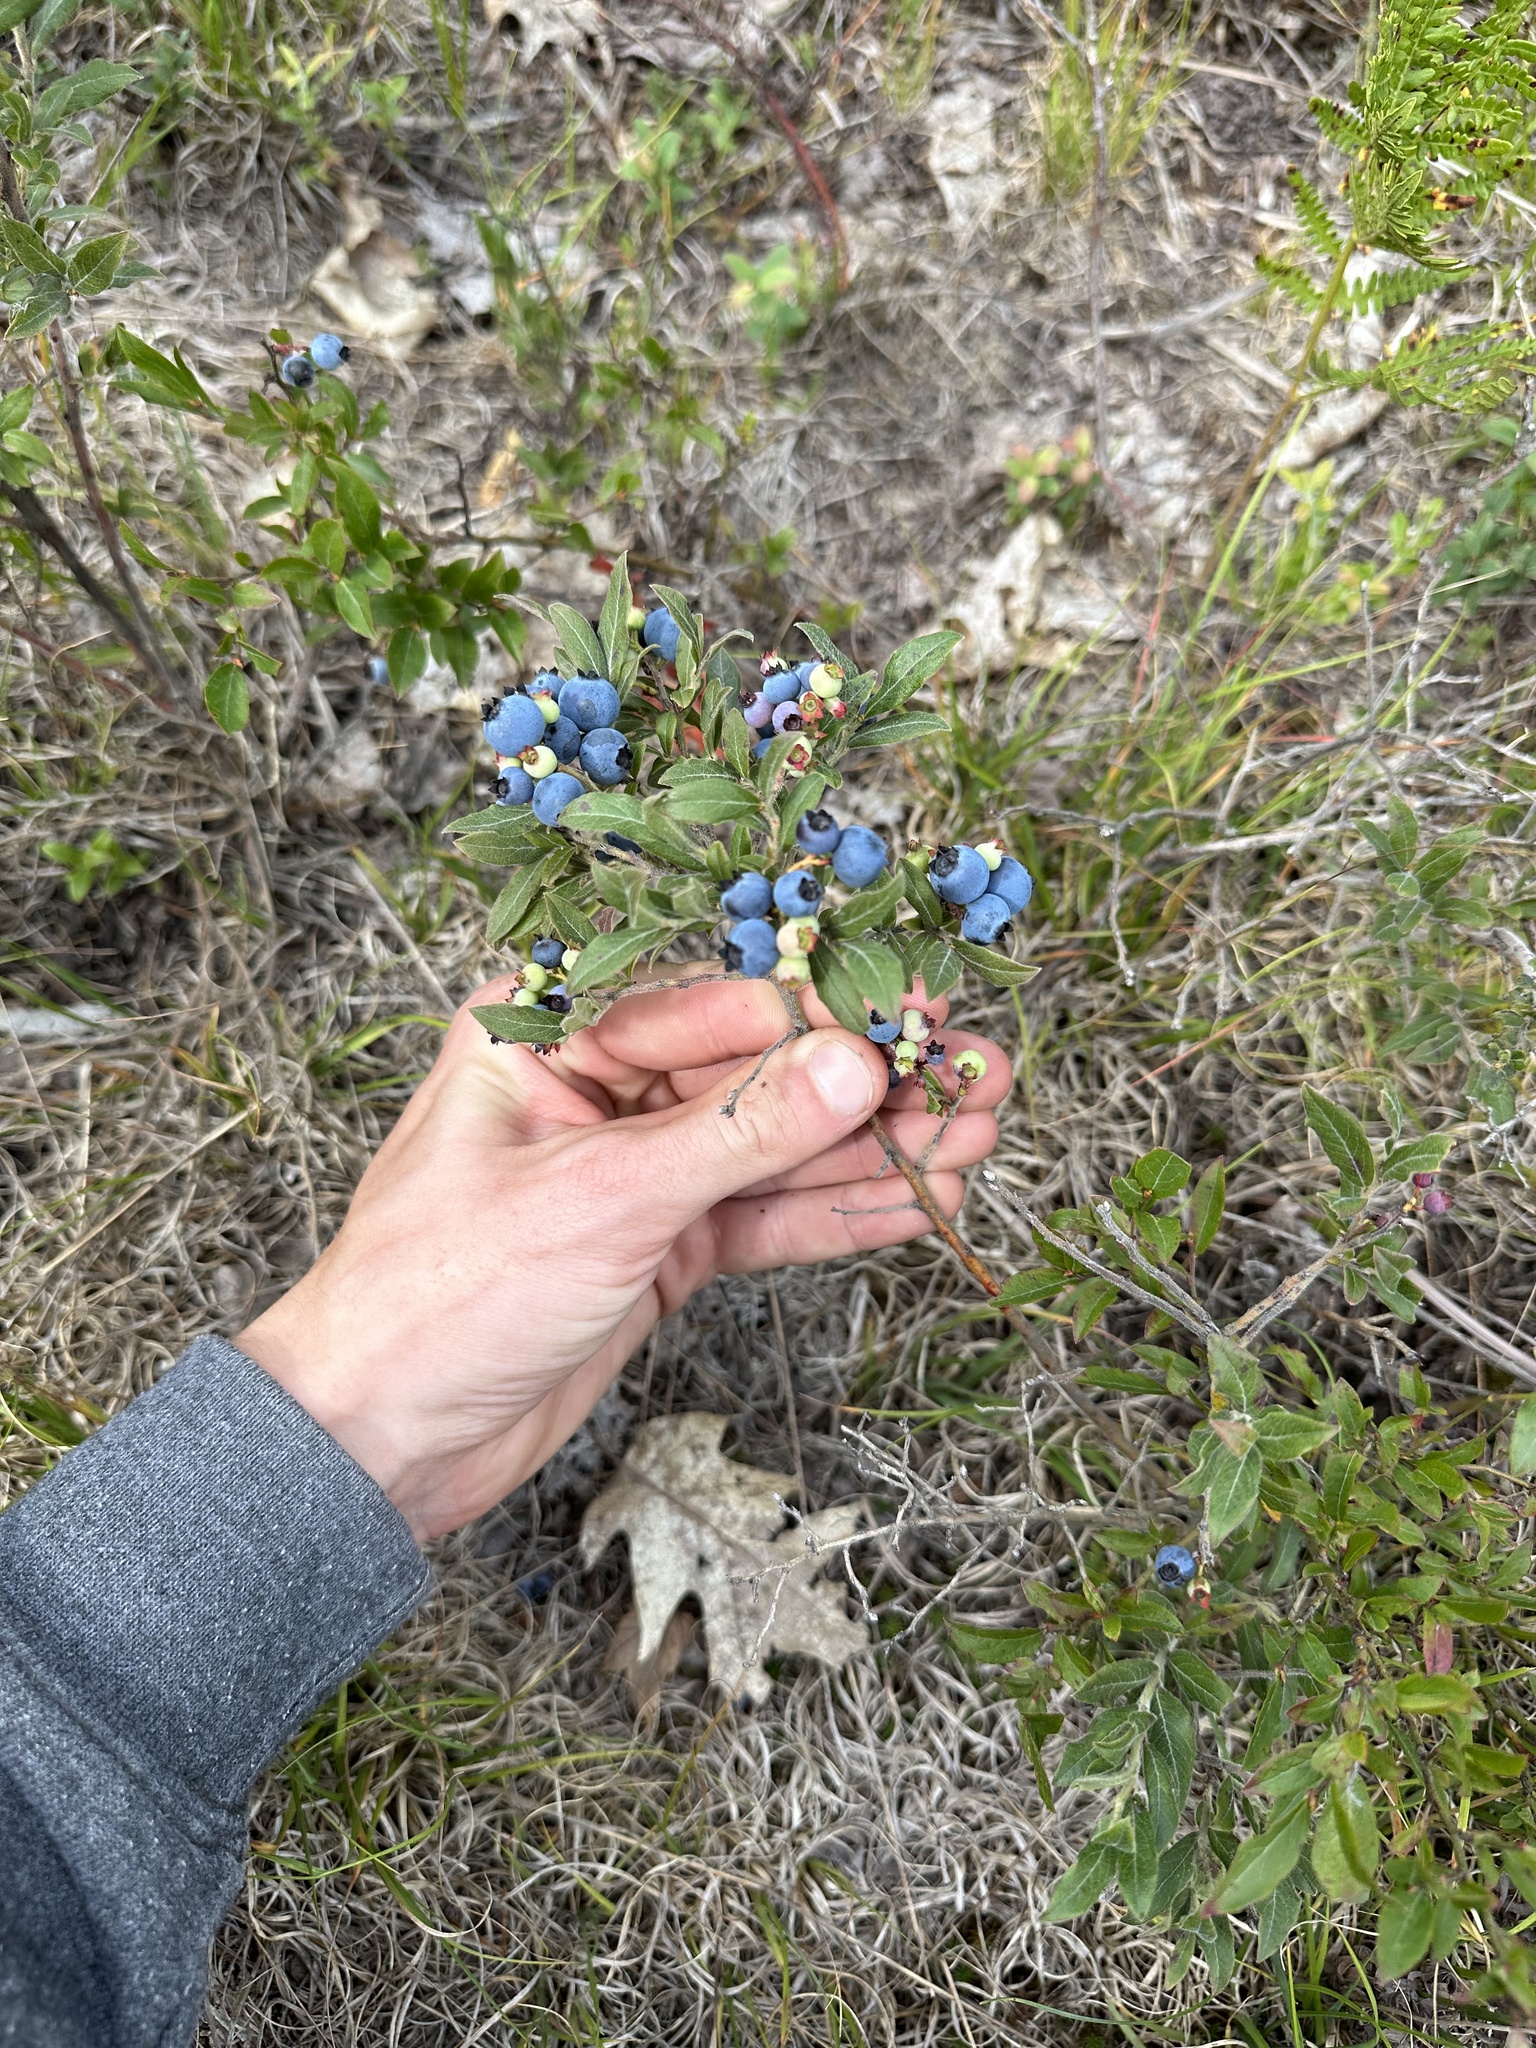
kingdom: Plantae
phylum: Tracheophyta
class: Magnoliopsida
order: Ericales
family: Ericaceae
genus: Vaccinium
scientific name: Vaccinium angustifolium
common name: Early lowbush blueberry
